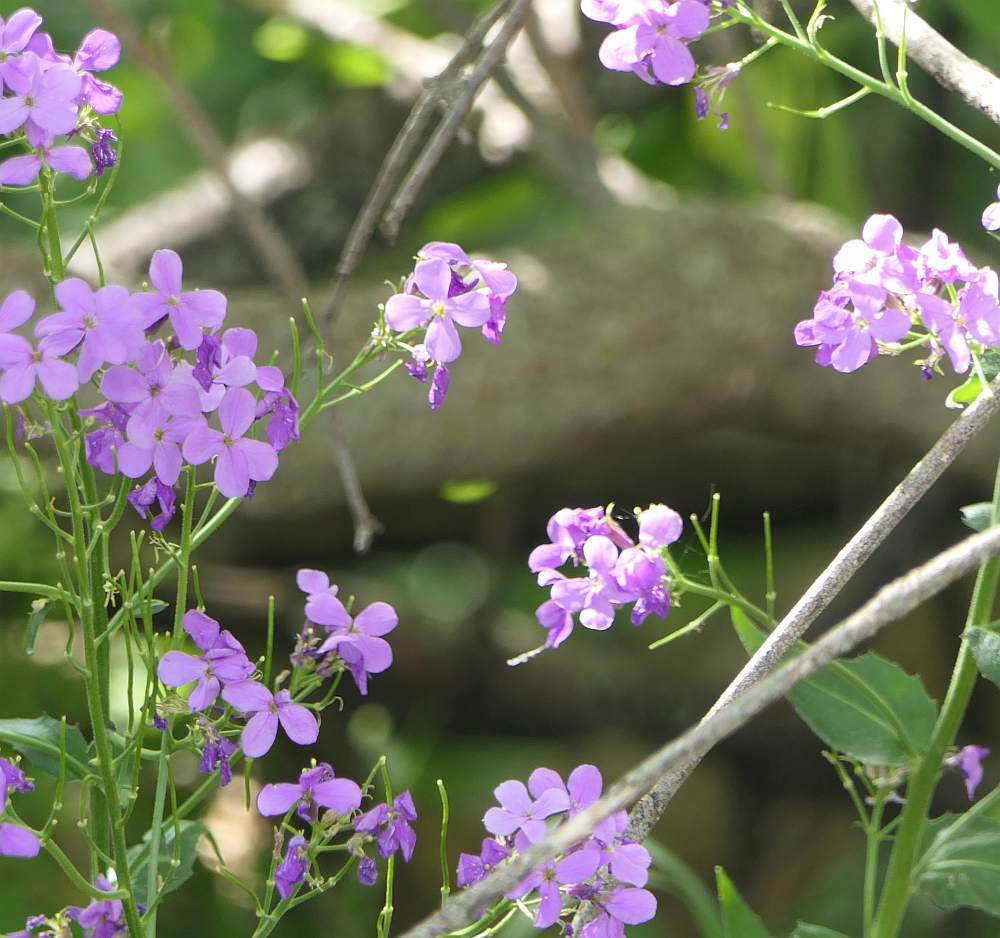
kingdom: Plantae
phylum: Tracheophyta
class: Magnoliopsida
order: Brassicales
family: Brassicaceae
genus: Hesperis
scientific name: Hesperis matronalis
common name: Dame's-violet
